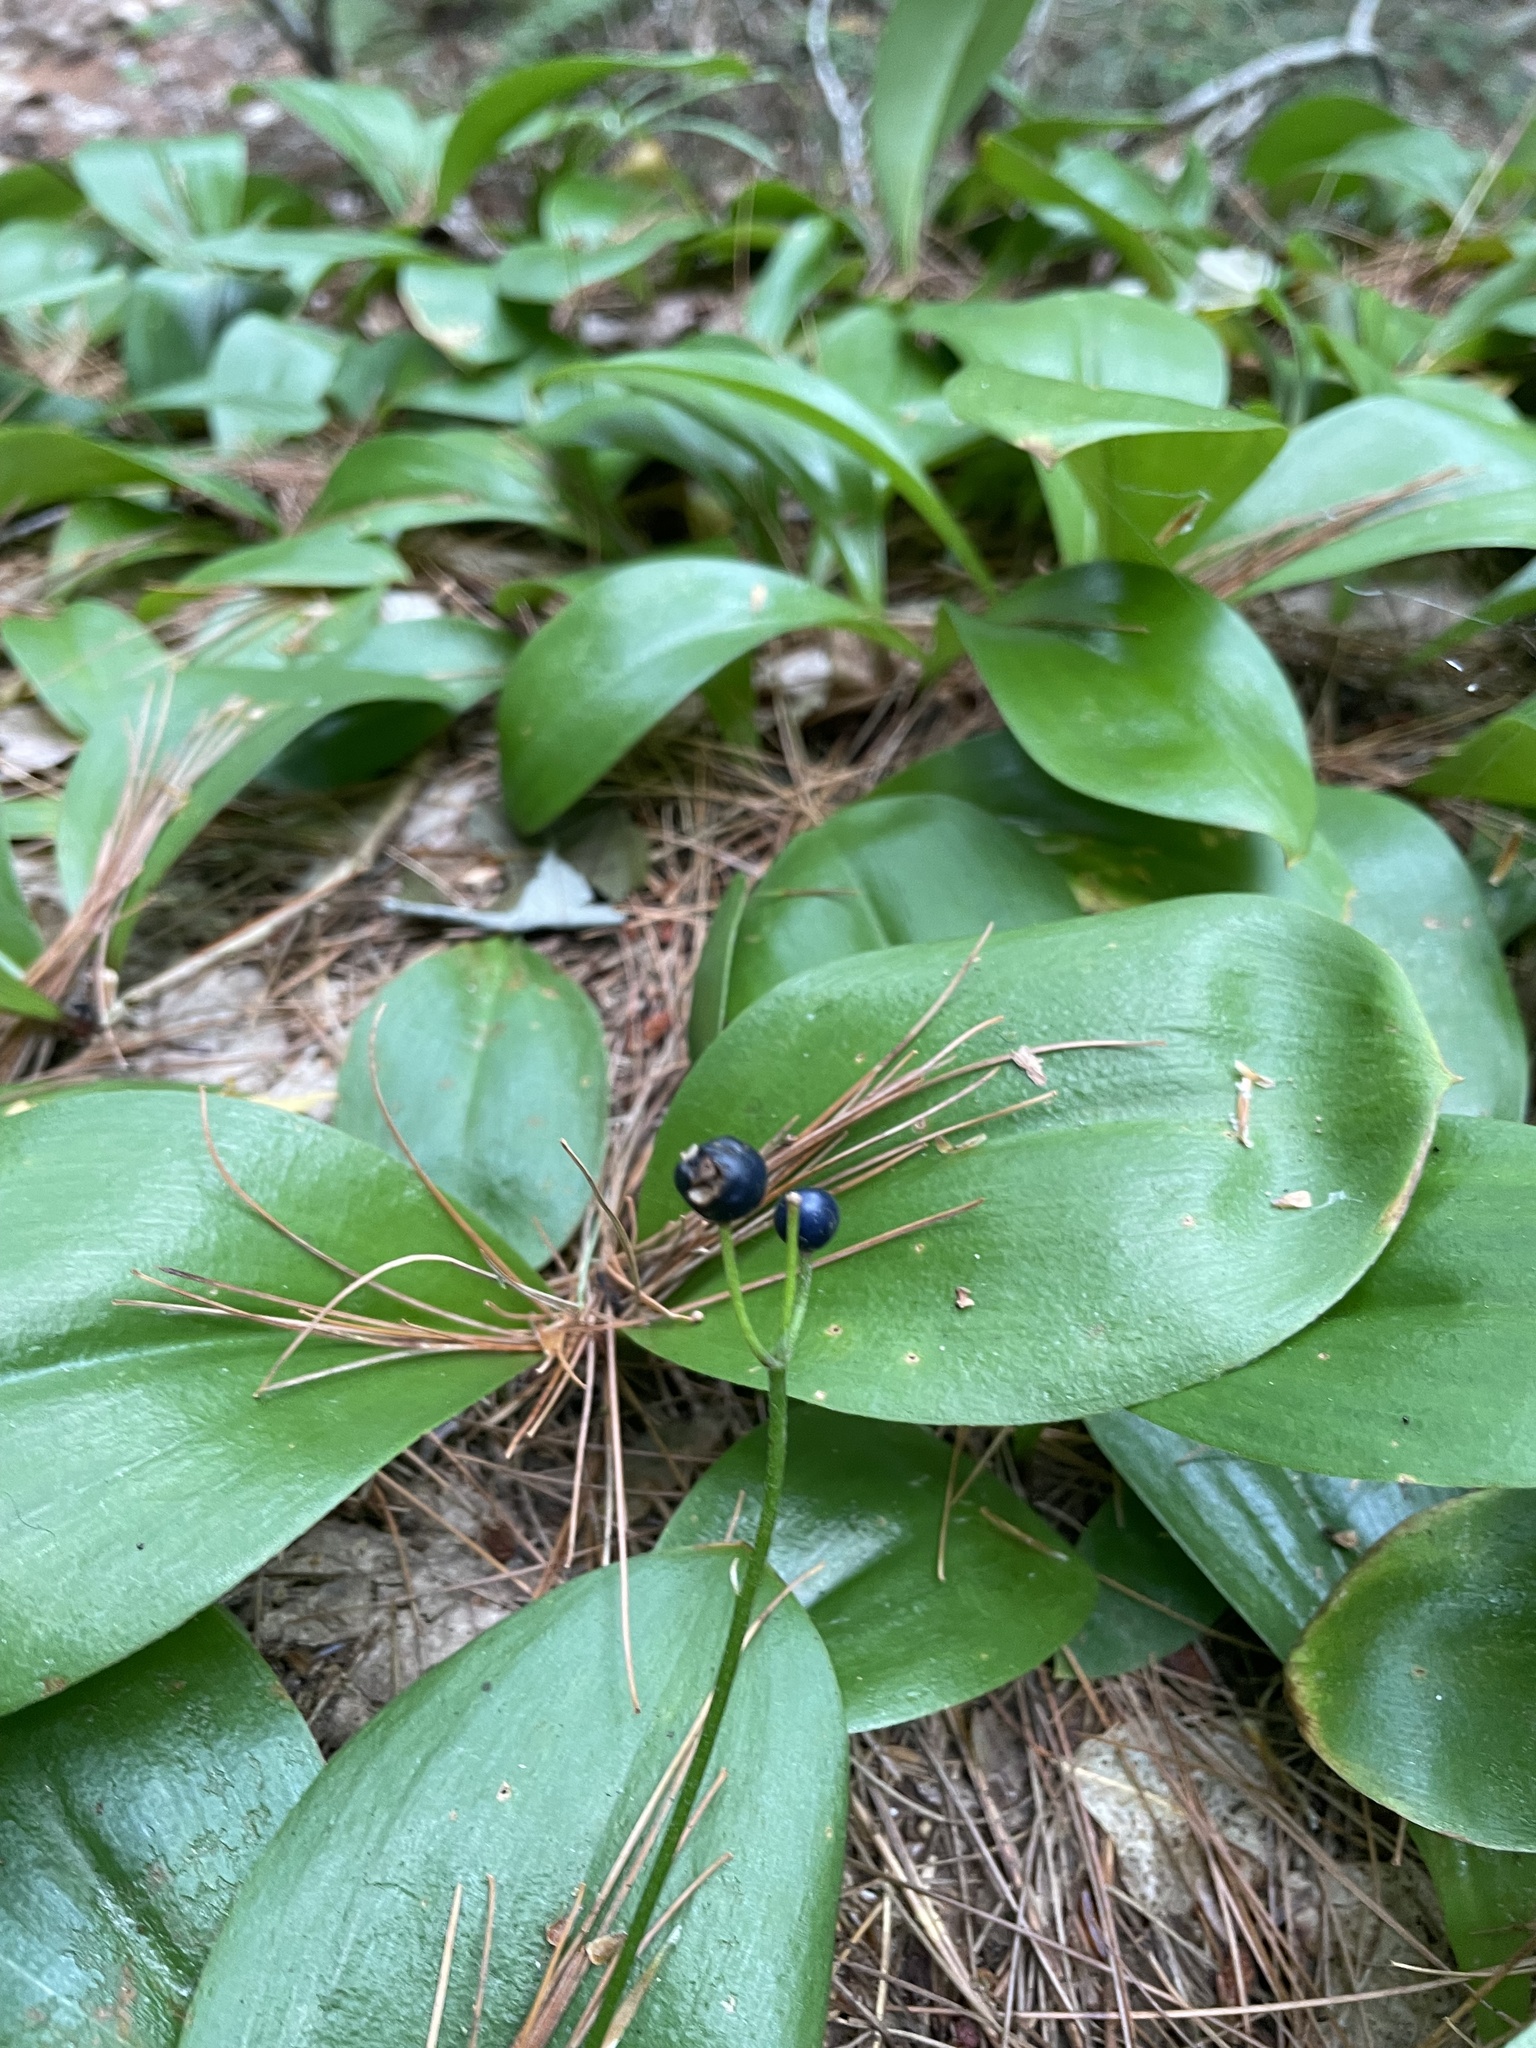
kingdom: Plantae
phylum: Tracheophyta
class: Liliopsida
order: Liliales
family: Liliaceae
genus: Clintonia
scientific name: Clintonia borealis
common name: Yellow clintonia
